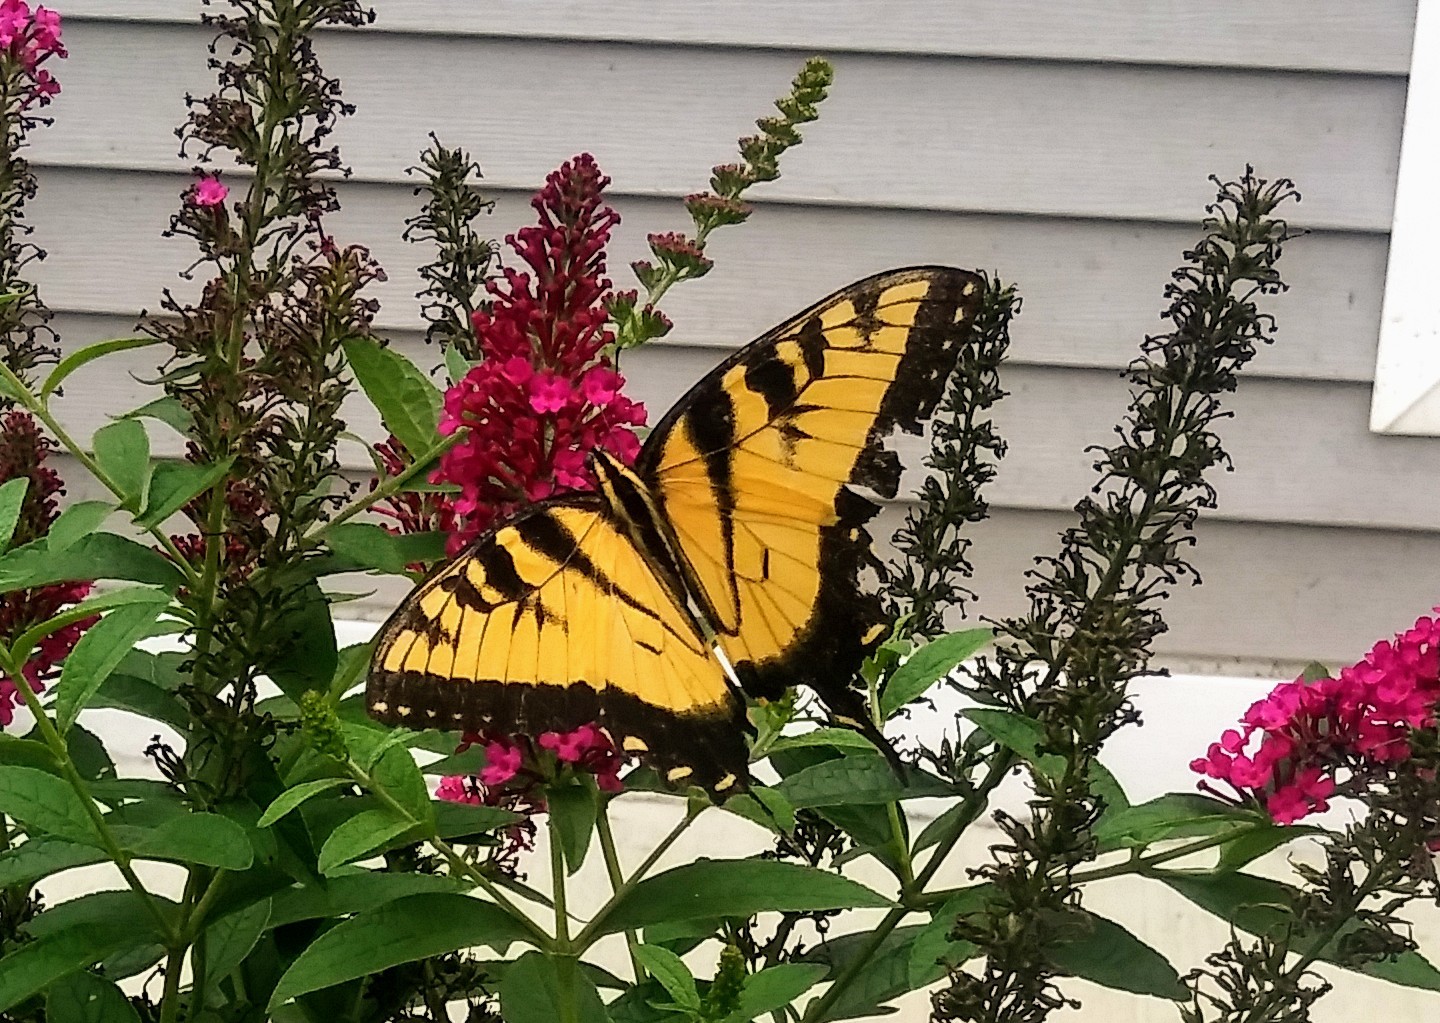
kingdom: Animalia
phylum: Arthropoda
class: Insecta
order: Lepidoptera
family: Papilionidae
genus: Papilio
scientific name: Papilio glaucus
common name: Tiger swallowtail
